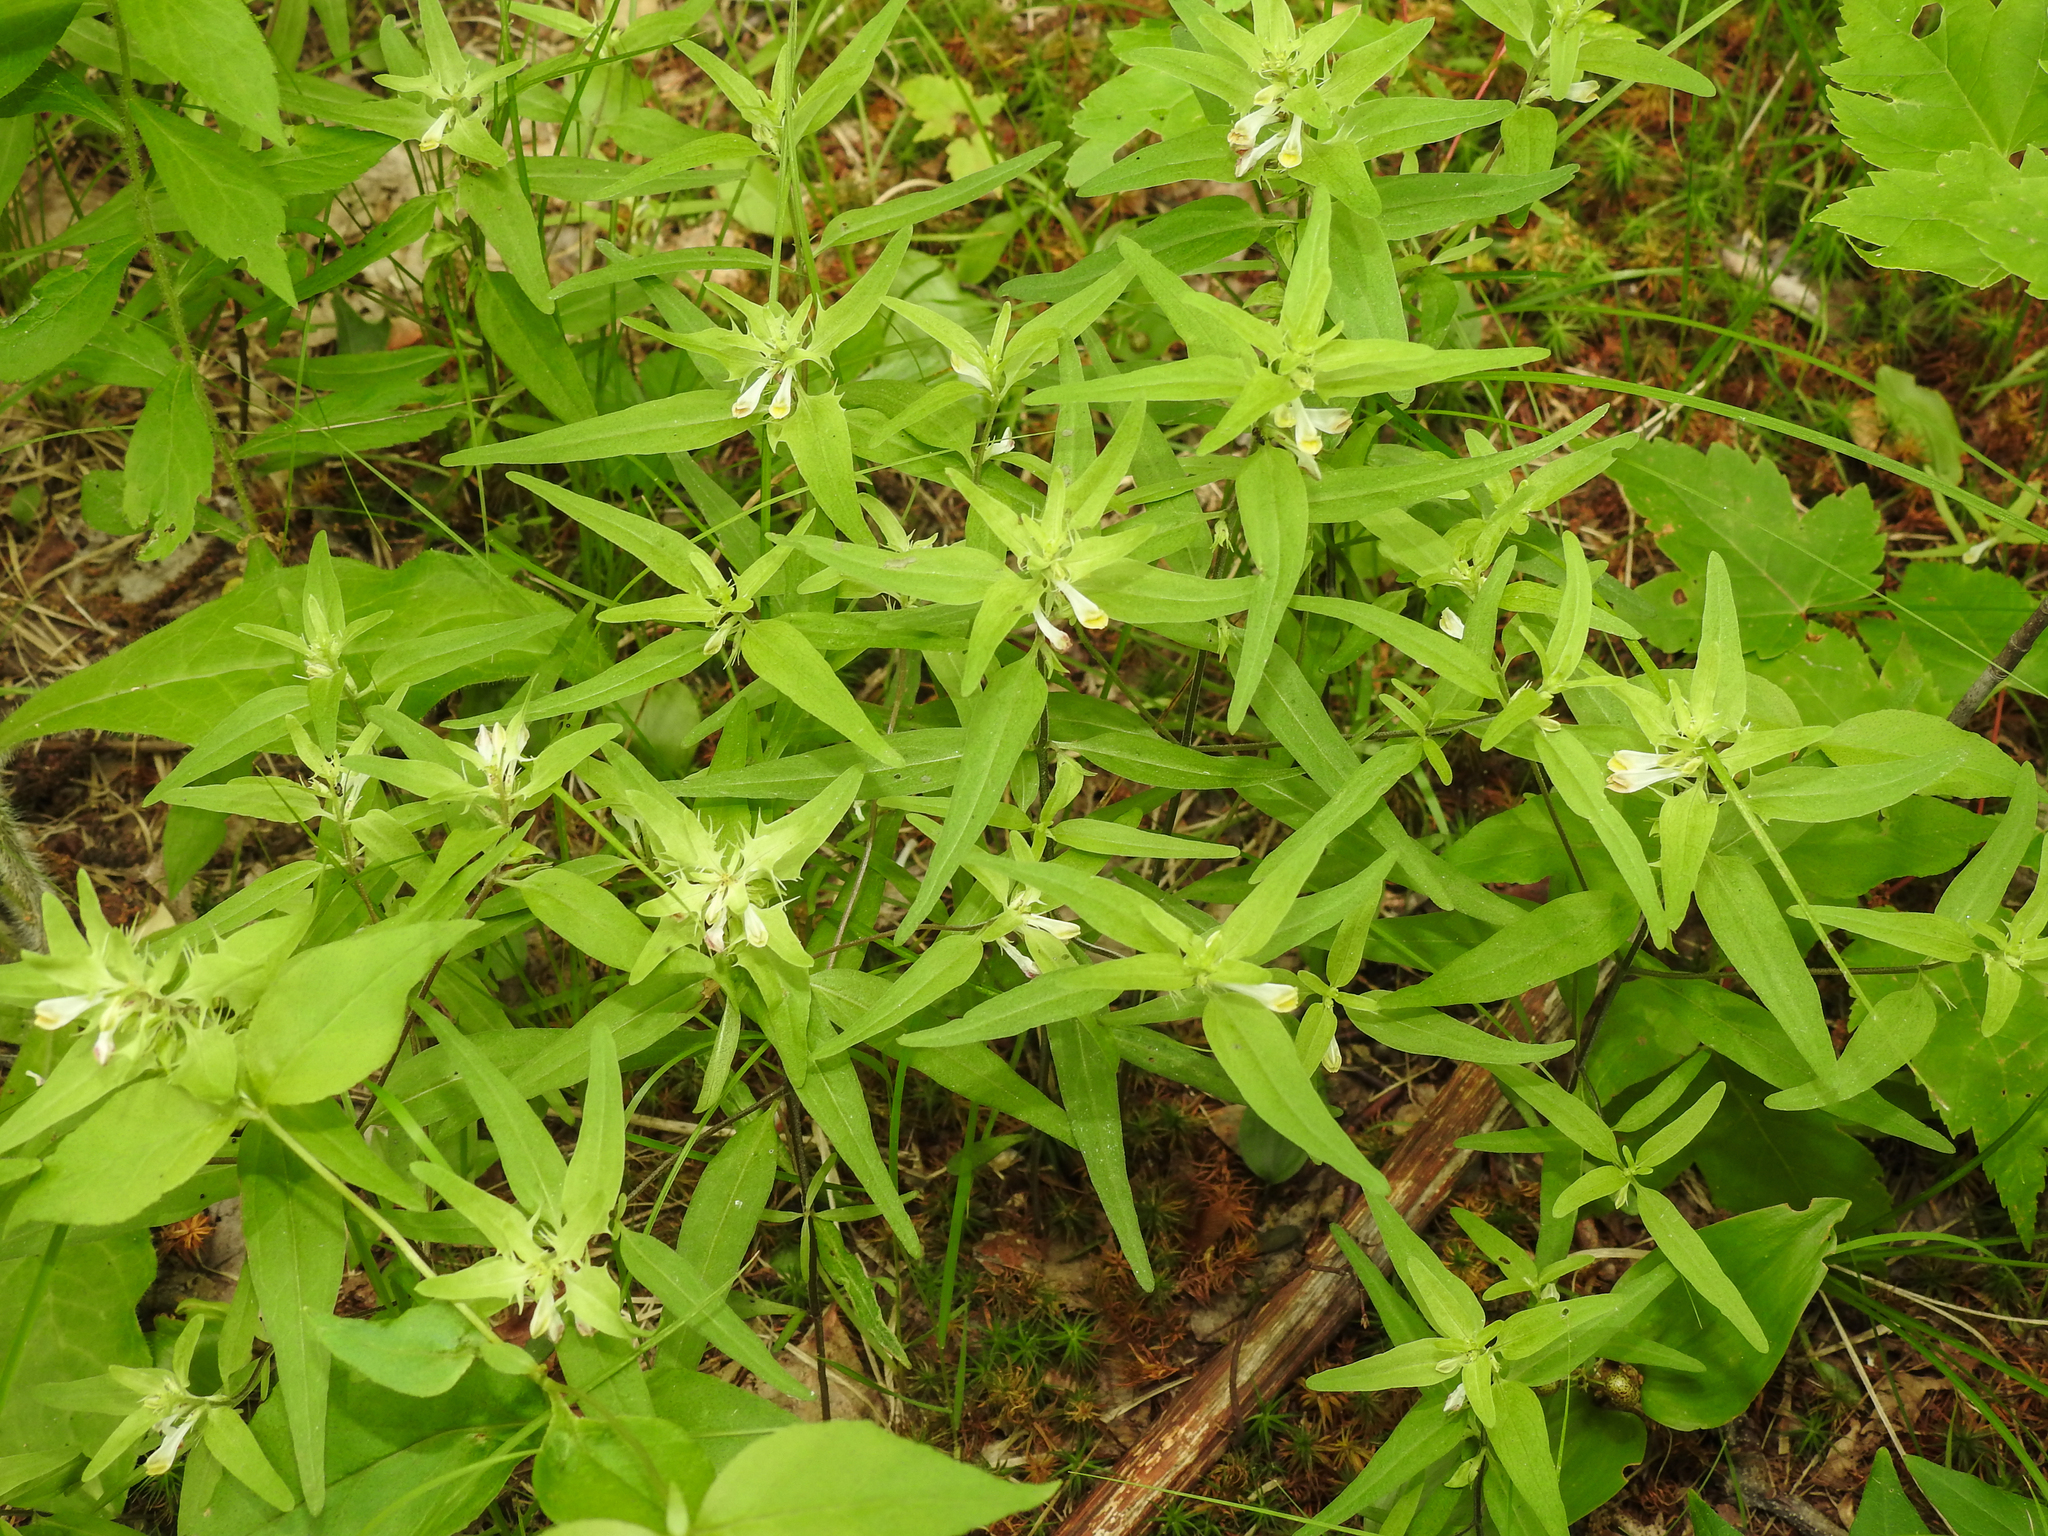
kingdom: Plantae
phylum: Tracheophyta
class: Magnoliopsida
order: Lamiales
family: Orobanchaceae
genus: Melampyrum
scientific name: Melampyrum lineare
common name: American cow-wheat
